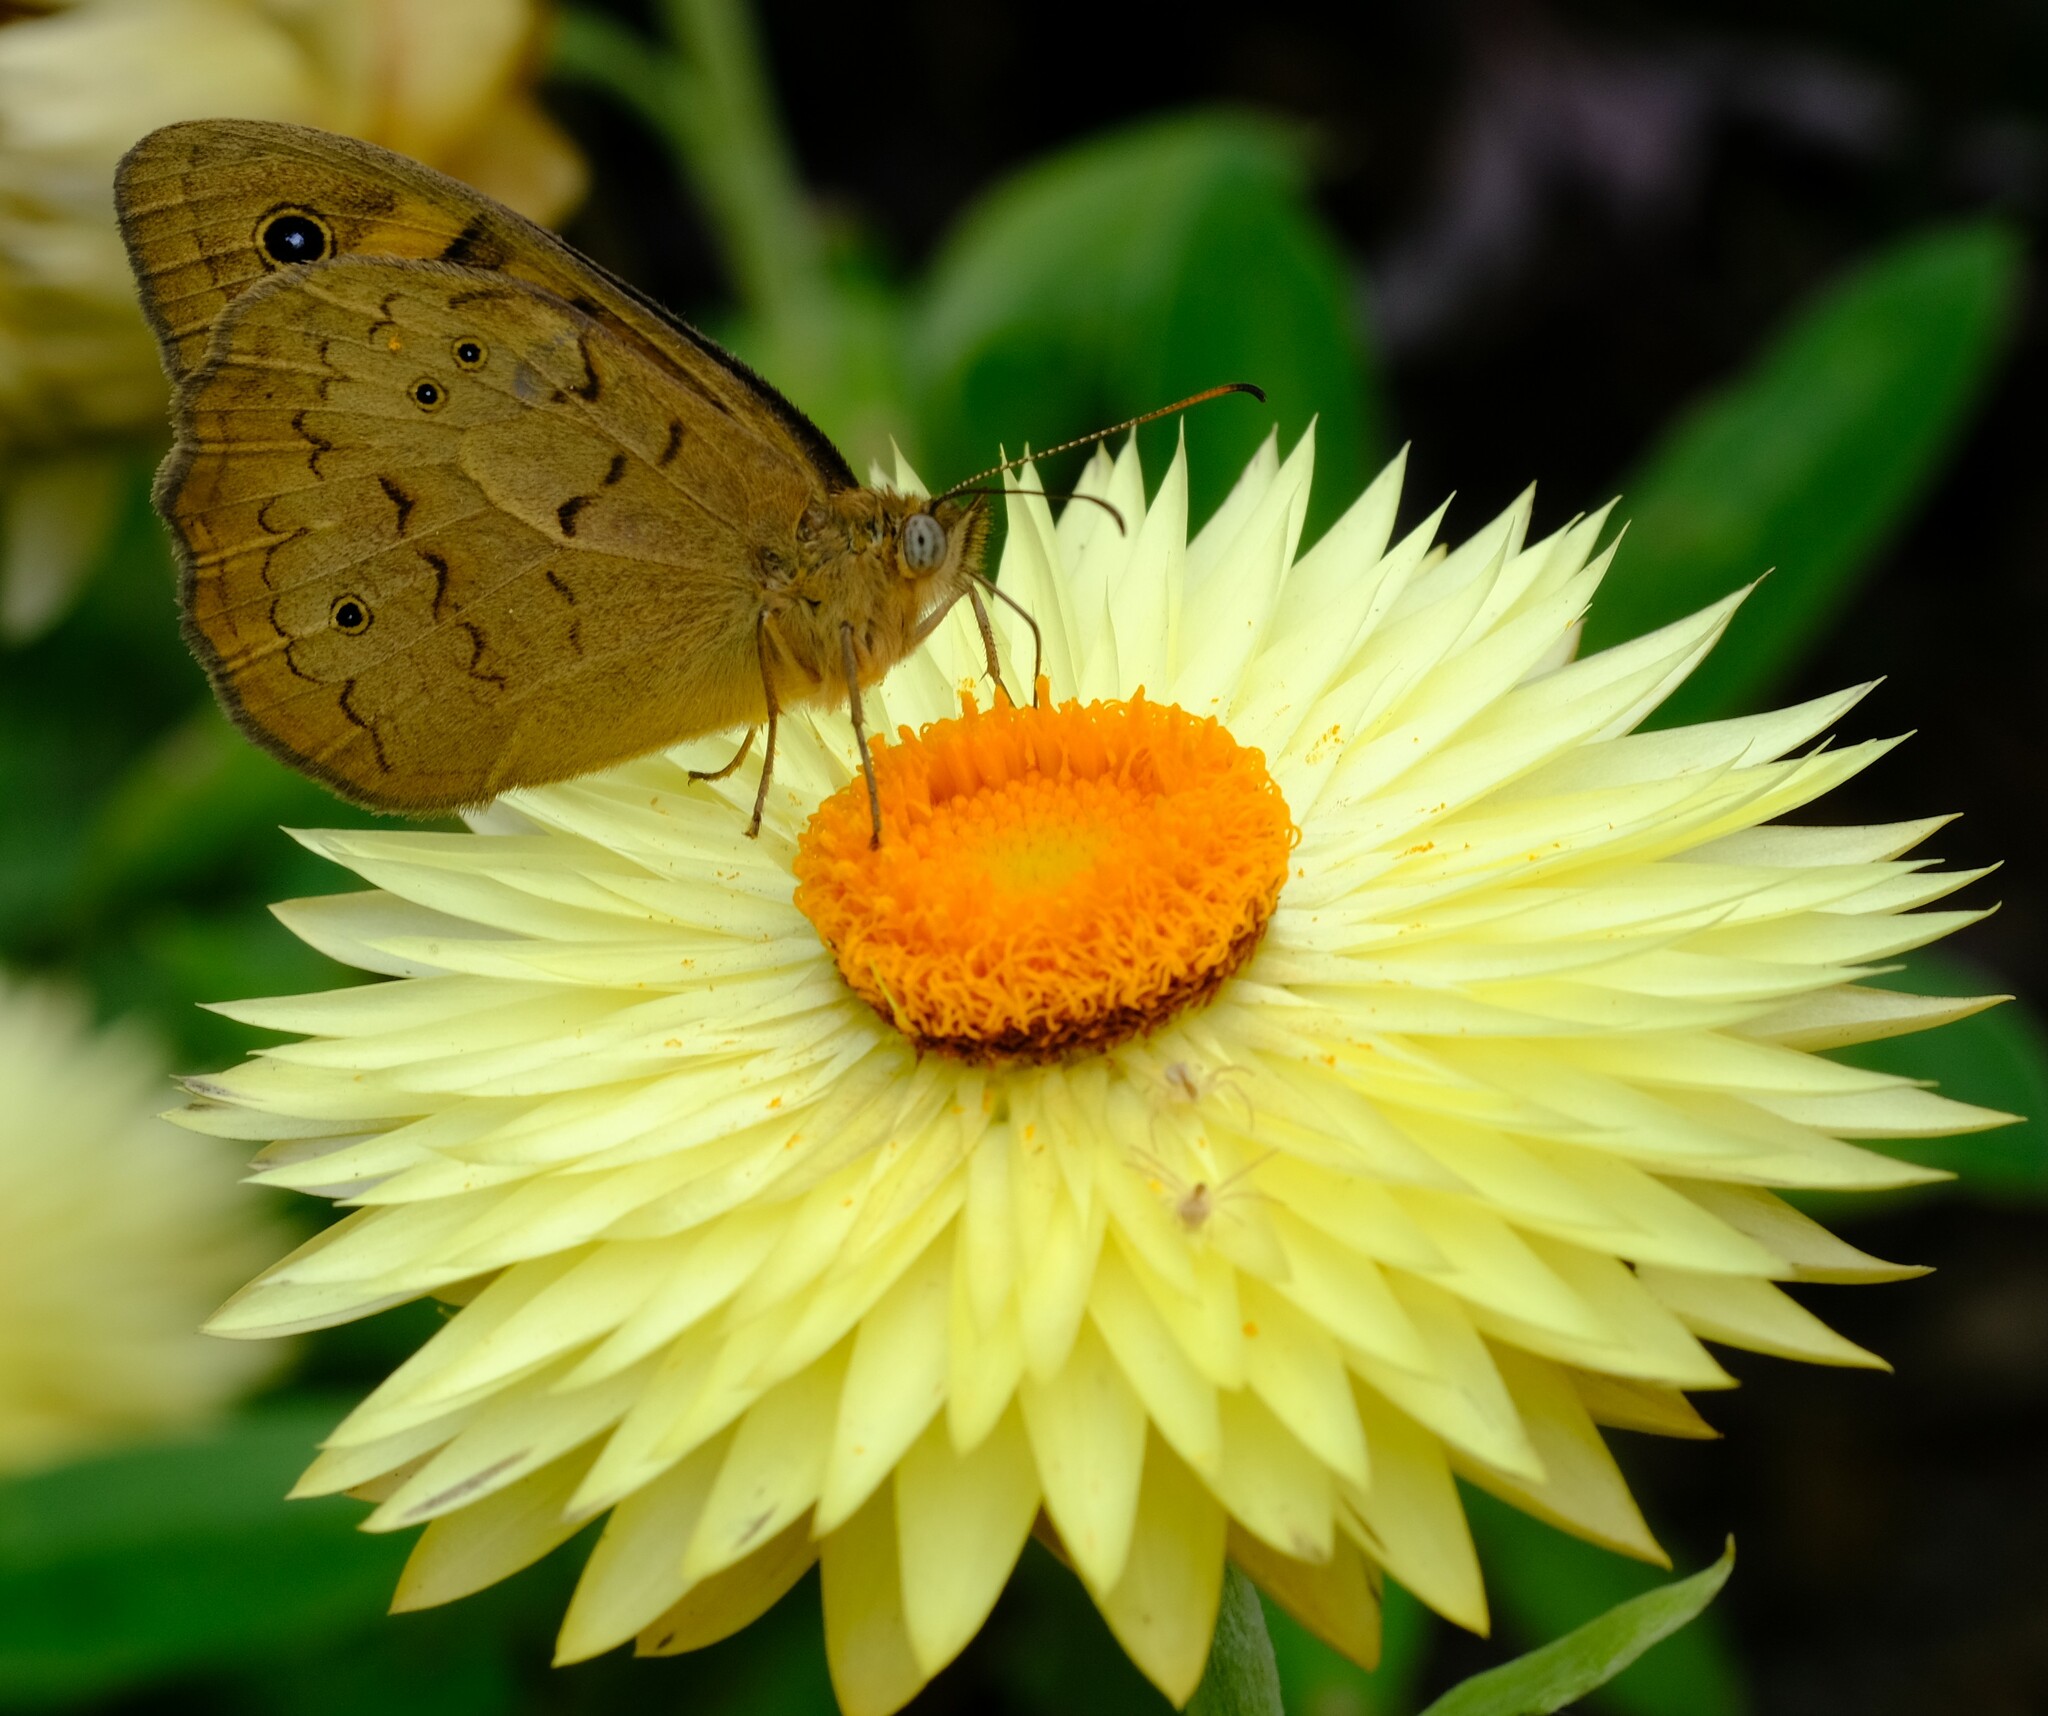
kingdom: Animalia
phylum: Arthropoda
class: Insecta
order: Lepidoptera
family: Nymphalidae
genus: Heteronympha
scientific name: Heteronympha merope
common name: Common brown
